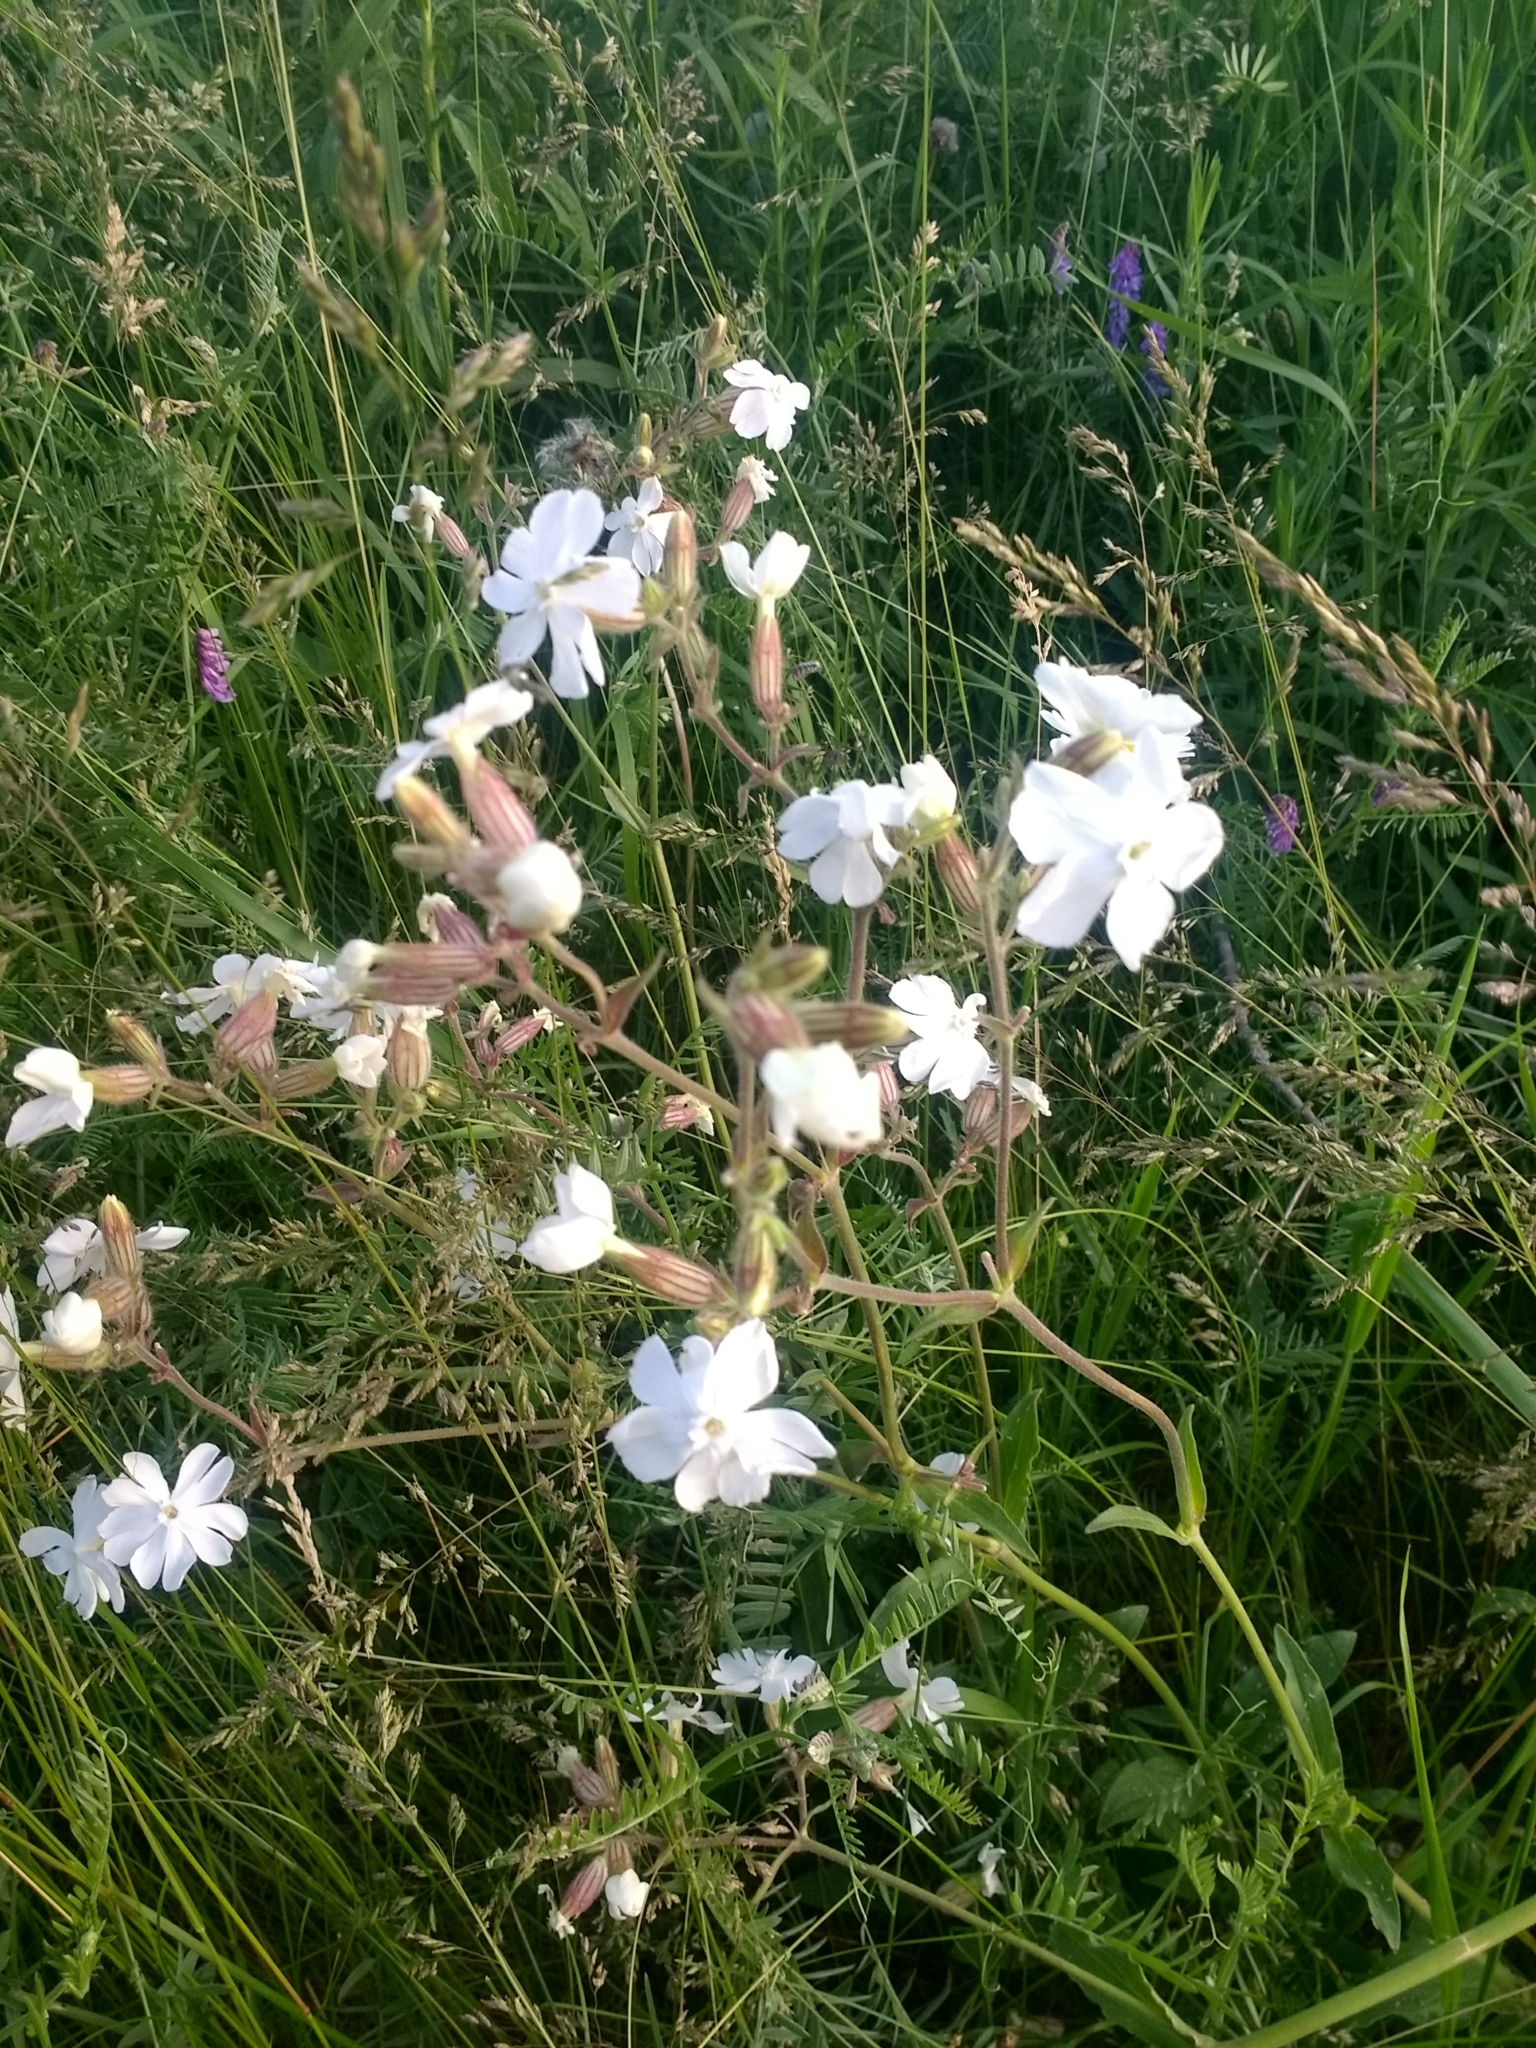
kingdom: Plantae
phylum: Tracheophyta
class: Magnoliopsida
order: Caryophyllales
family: Caryophyllaceae
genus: Silene
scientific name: Silene latifolia
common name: White campion
